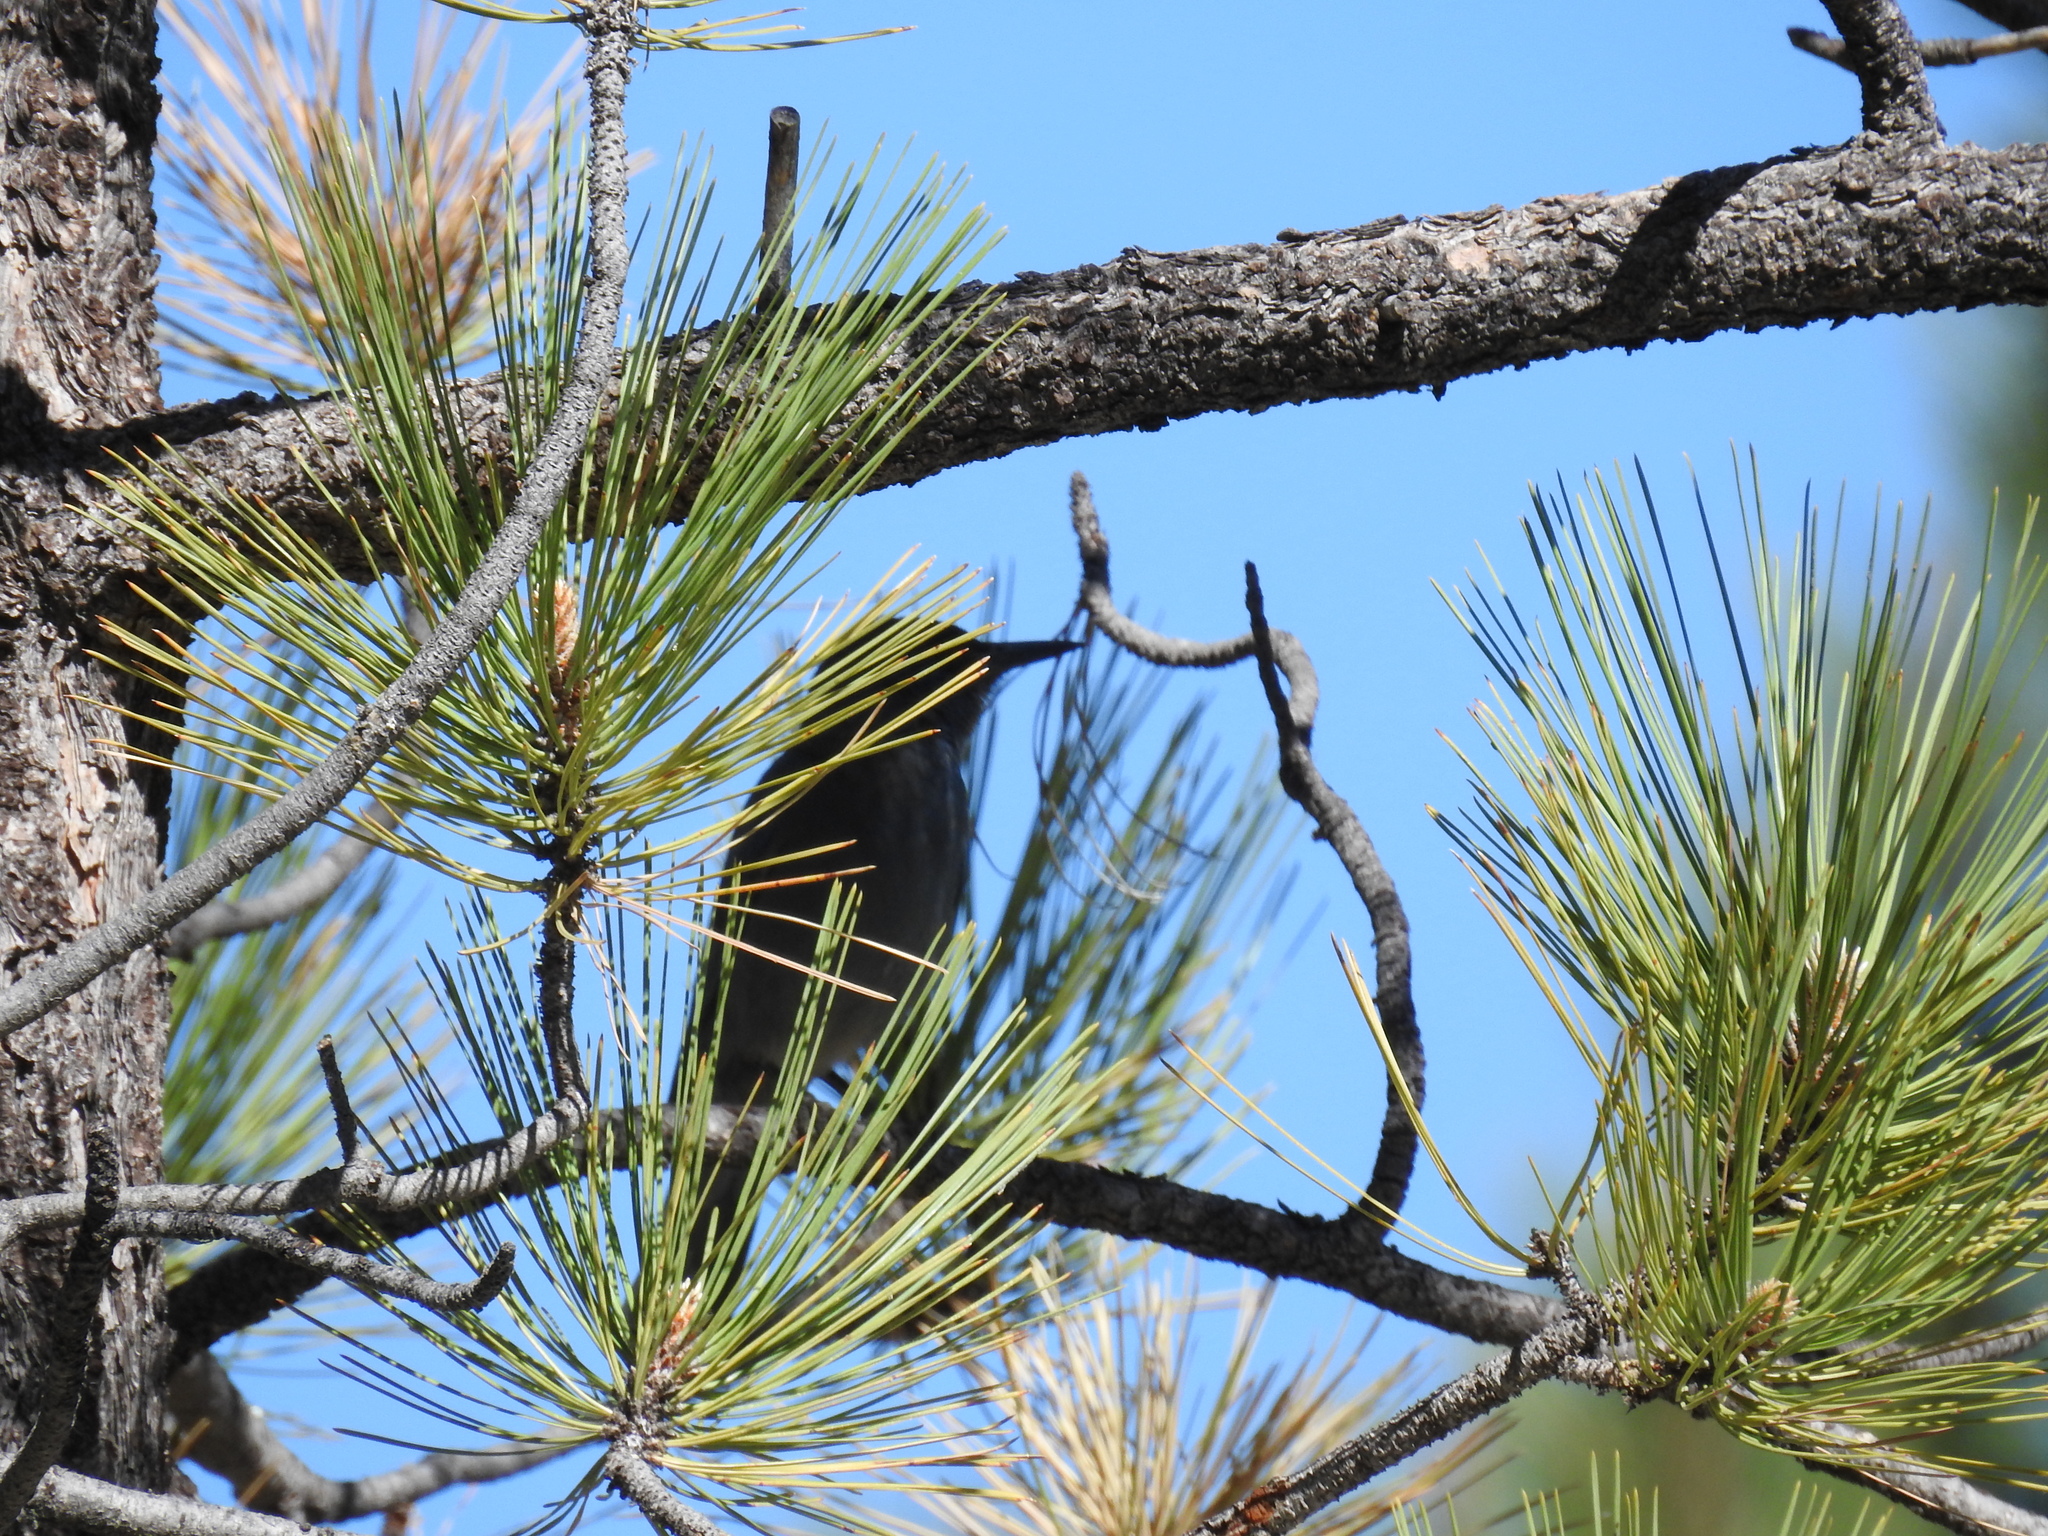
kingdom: Animalia
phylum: Chordata
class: Aves
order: Passeriformes
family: Corvidae
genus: Gymnorhinus
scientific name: Gymnorhinus cyanocephalus
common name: Pinyon jay
